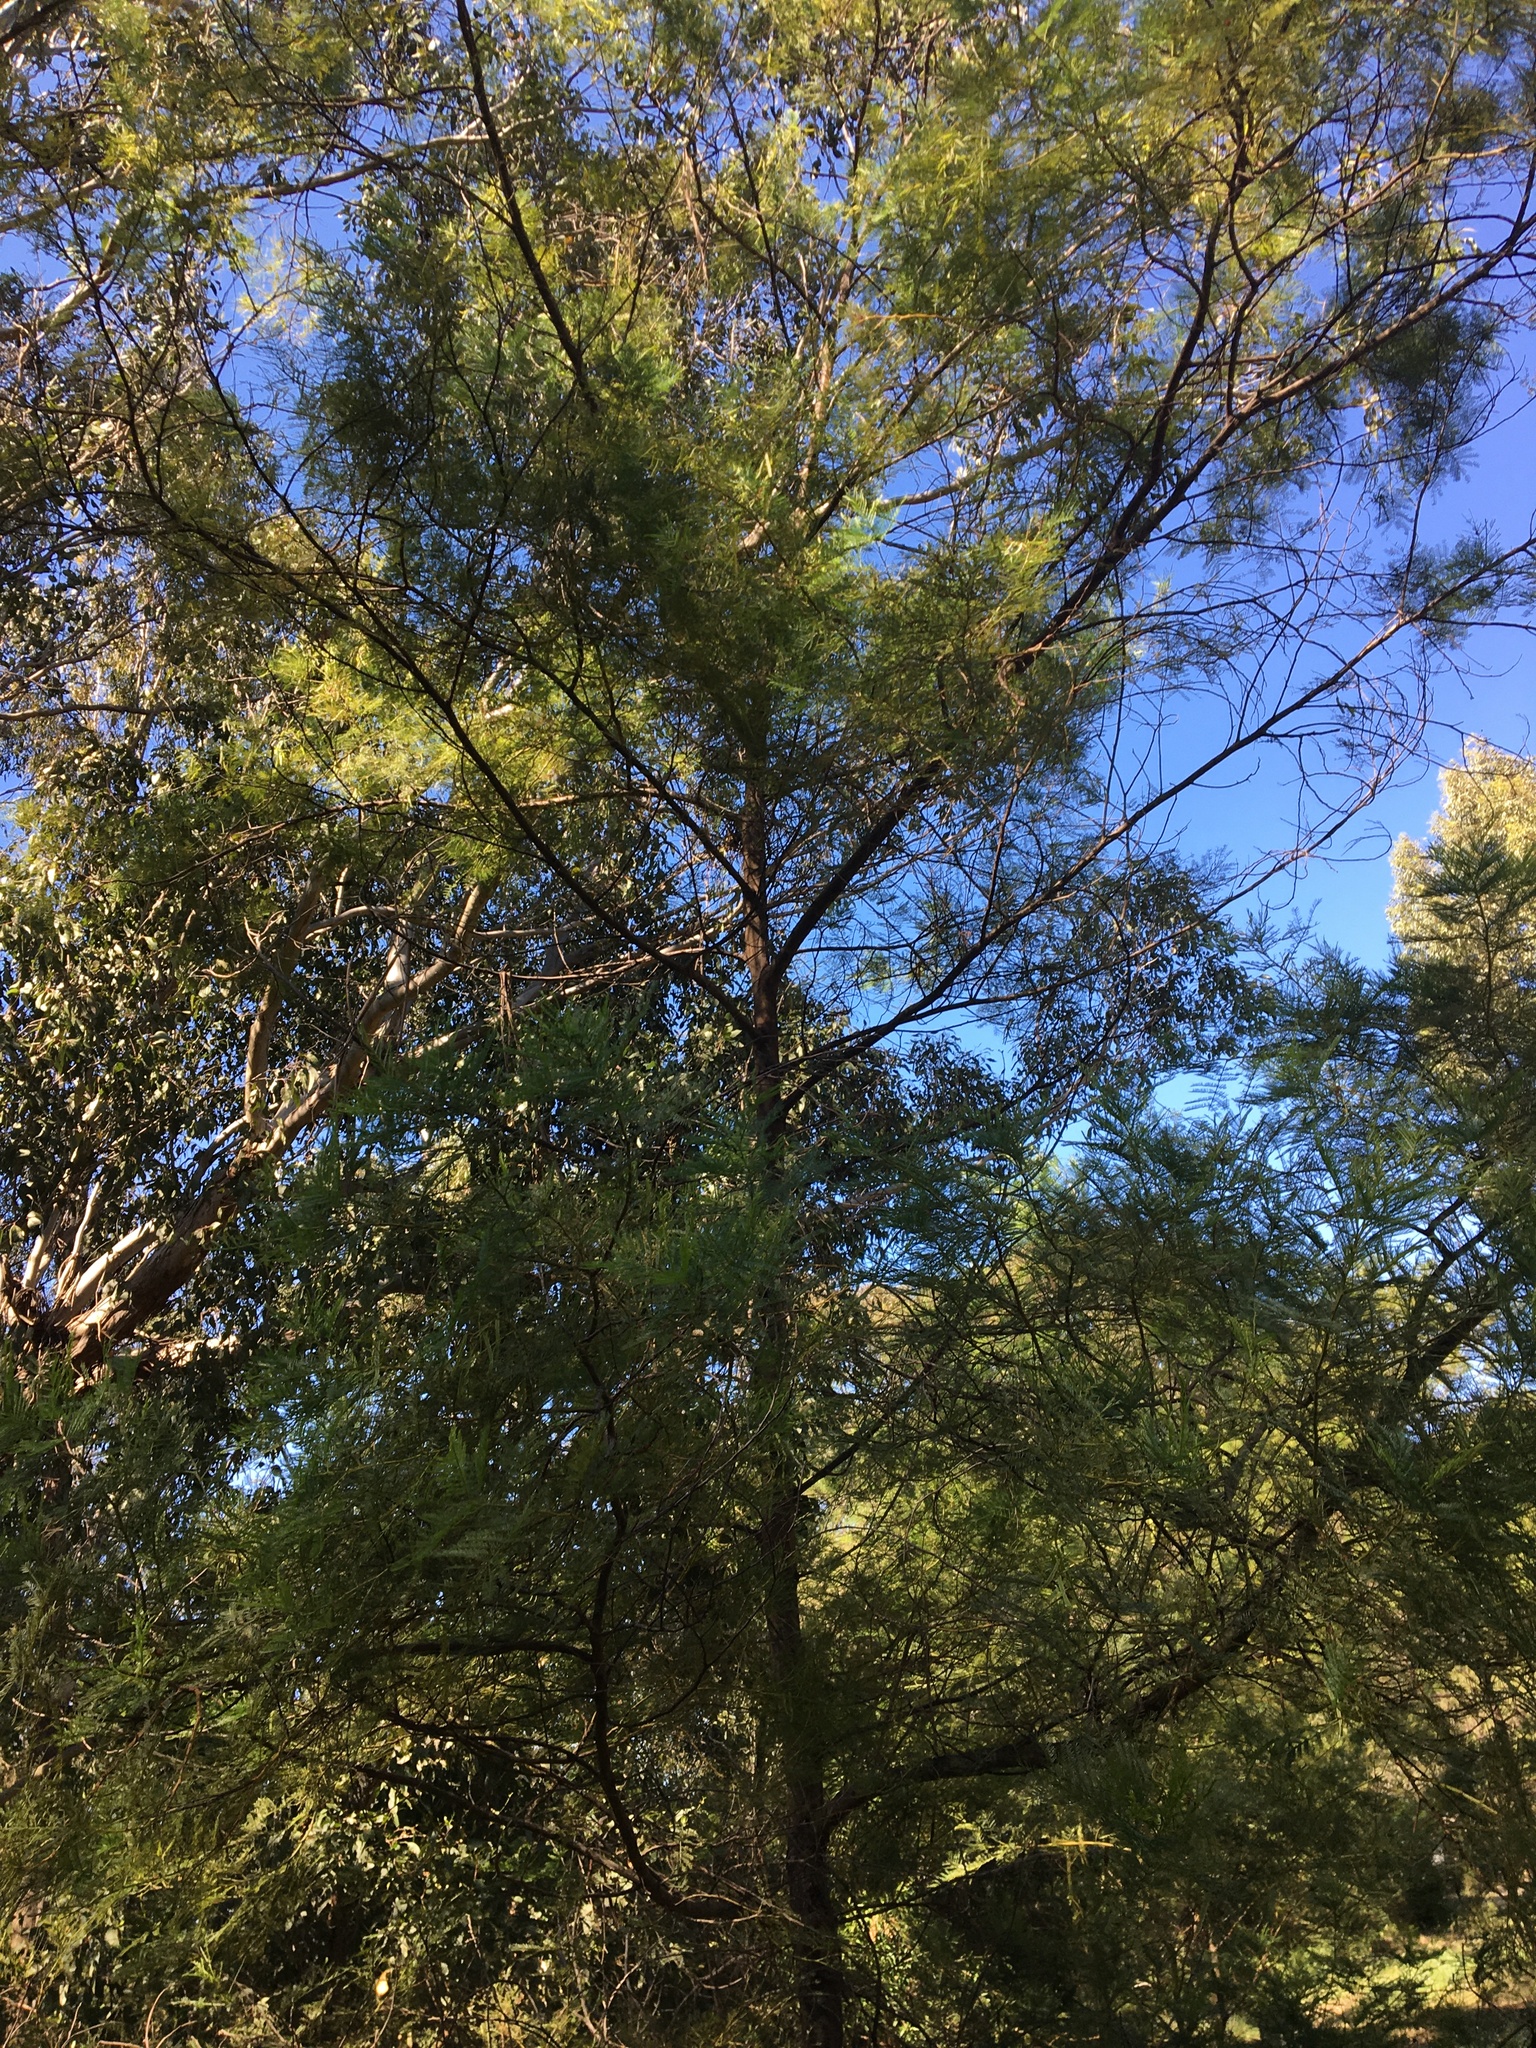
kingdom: Plantae
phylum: Tracheophyta
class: Magnoliopsida
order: Fabales
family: Fabaceae
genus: Acacia
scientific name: Acacia decurrens
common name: Green wattle
